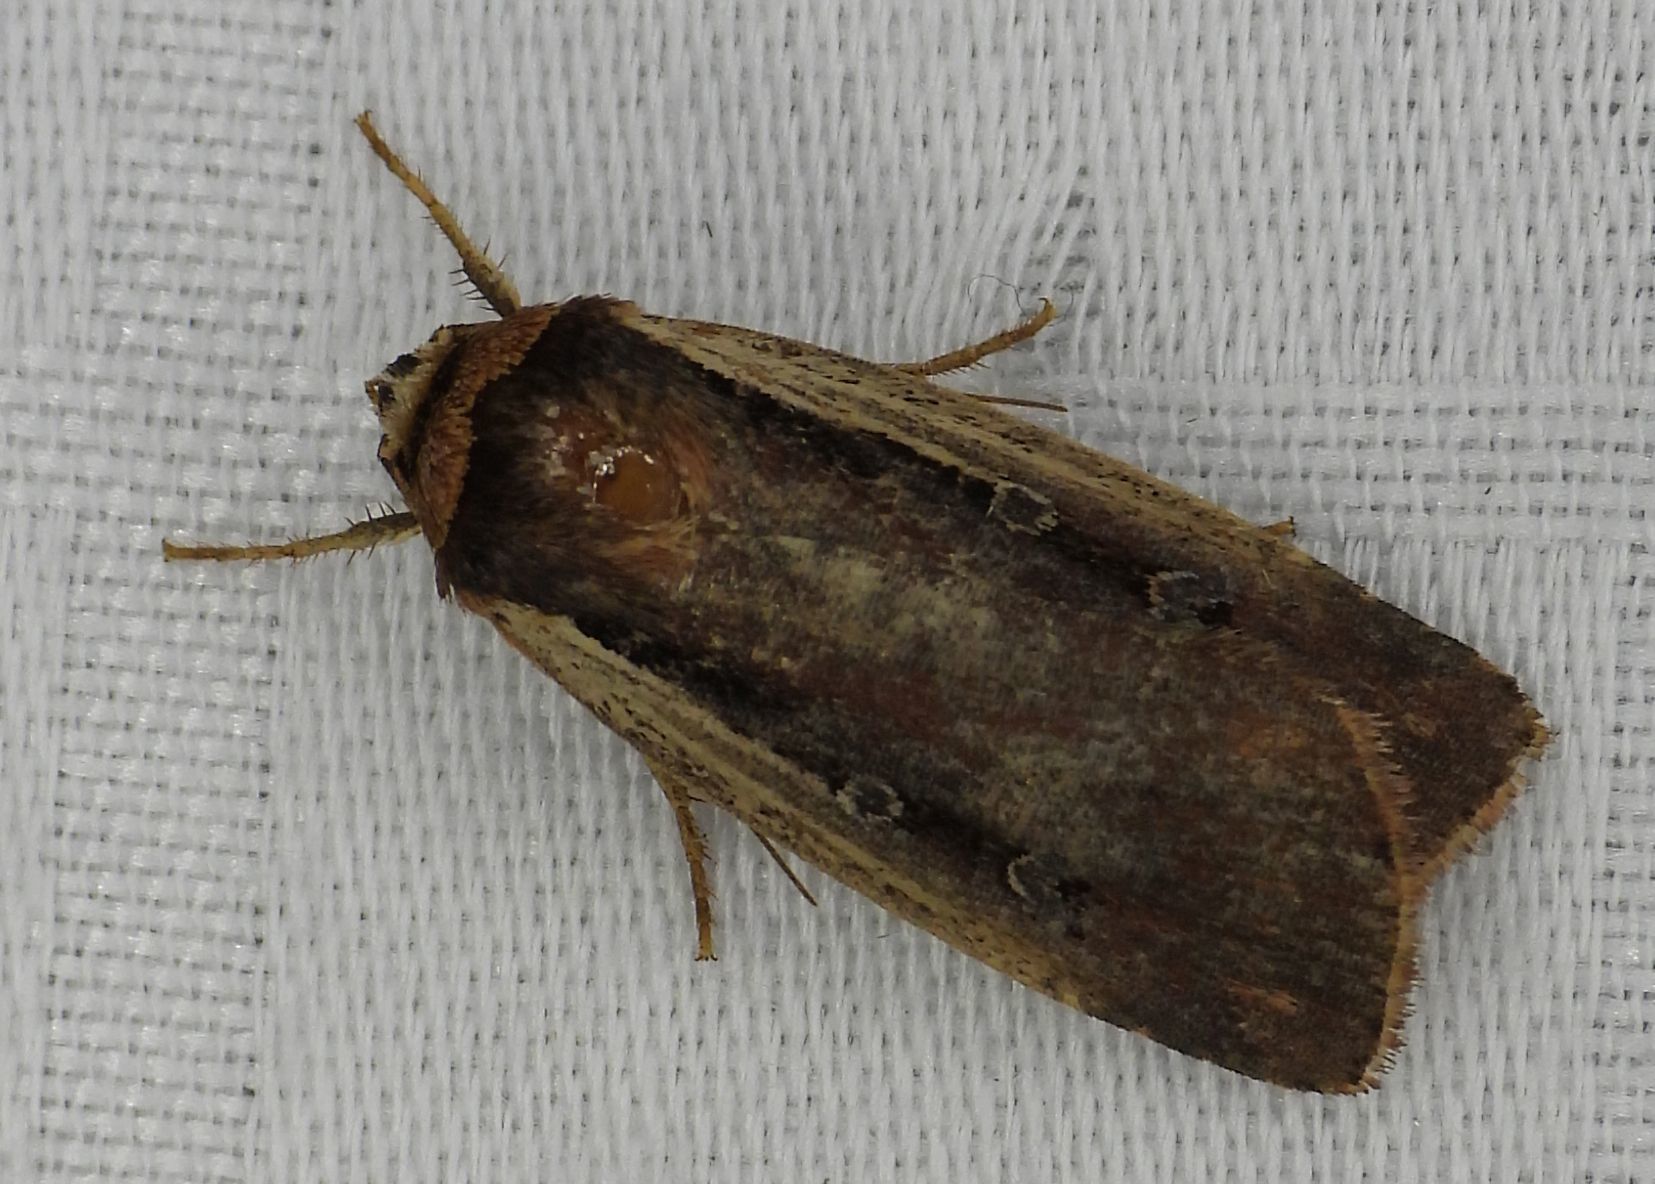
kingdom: Animalia
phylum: Arthropoda
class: Insecta
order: Lepidoptera
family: Noctuidae
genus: Ochropleura
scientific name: Ochropleura implecta
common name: Flame-shouldered dart
